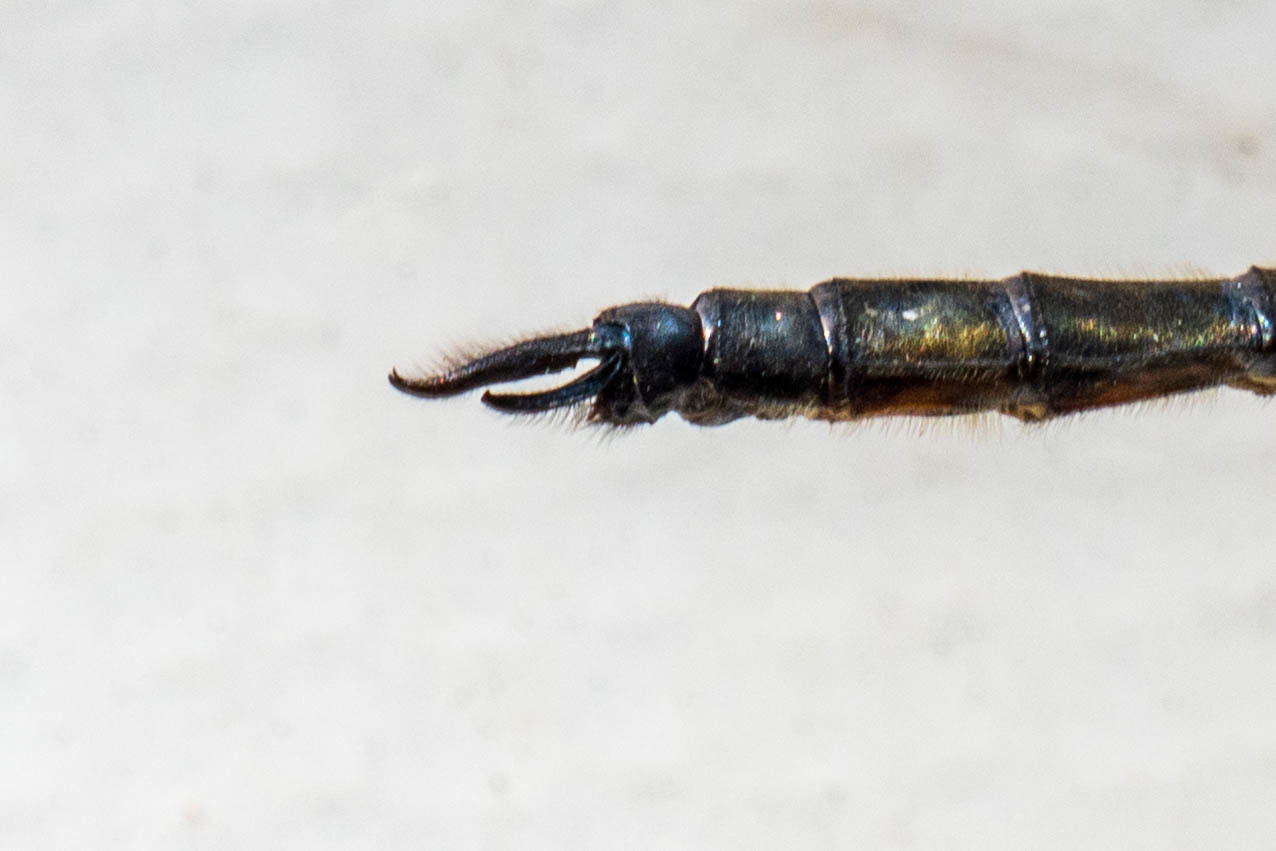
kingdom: Animalia
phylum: Arthropoda
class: Insecta
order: Odonata
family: Corduliidae
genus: Somatochlora
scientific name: Somatochlora elongata
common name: Ski-tipped emerald
